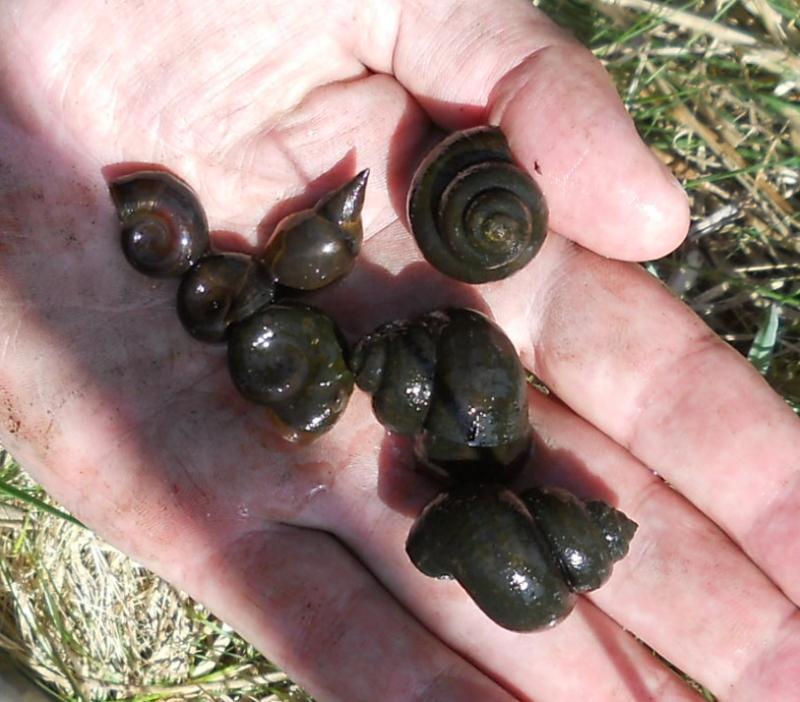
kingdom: Animalia
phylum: Mollusca
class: Gastropoda
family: Lymnaeidae
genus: Lymnaea
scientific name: Lymnaea stagnalis
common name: Great pond snail
